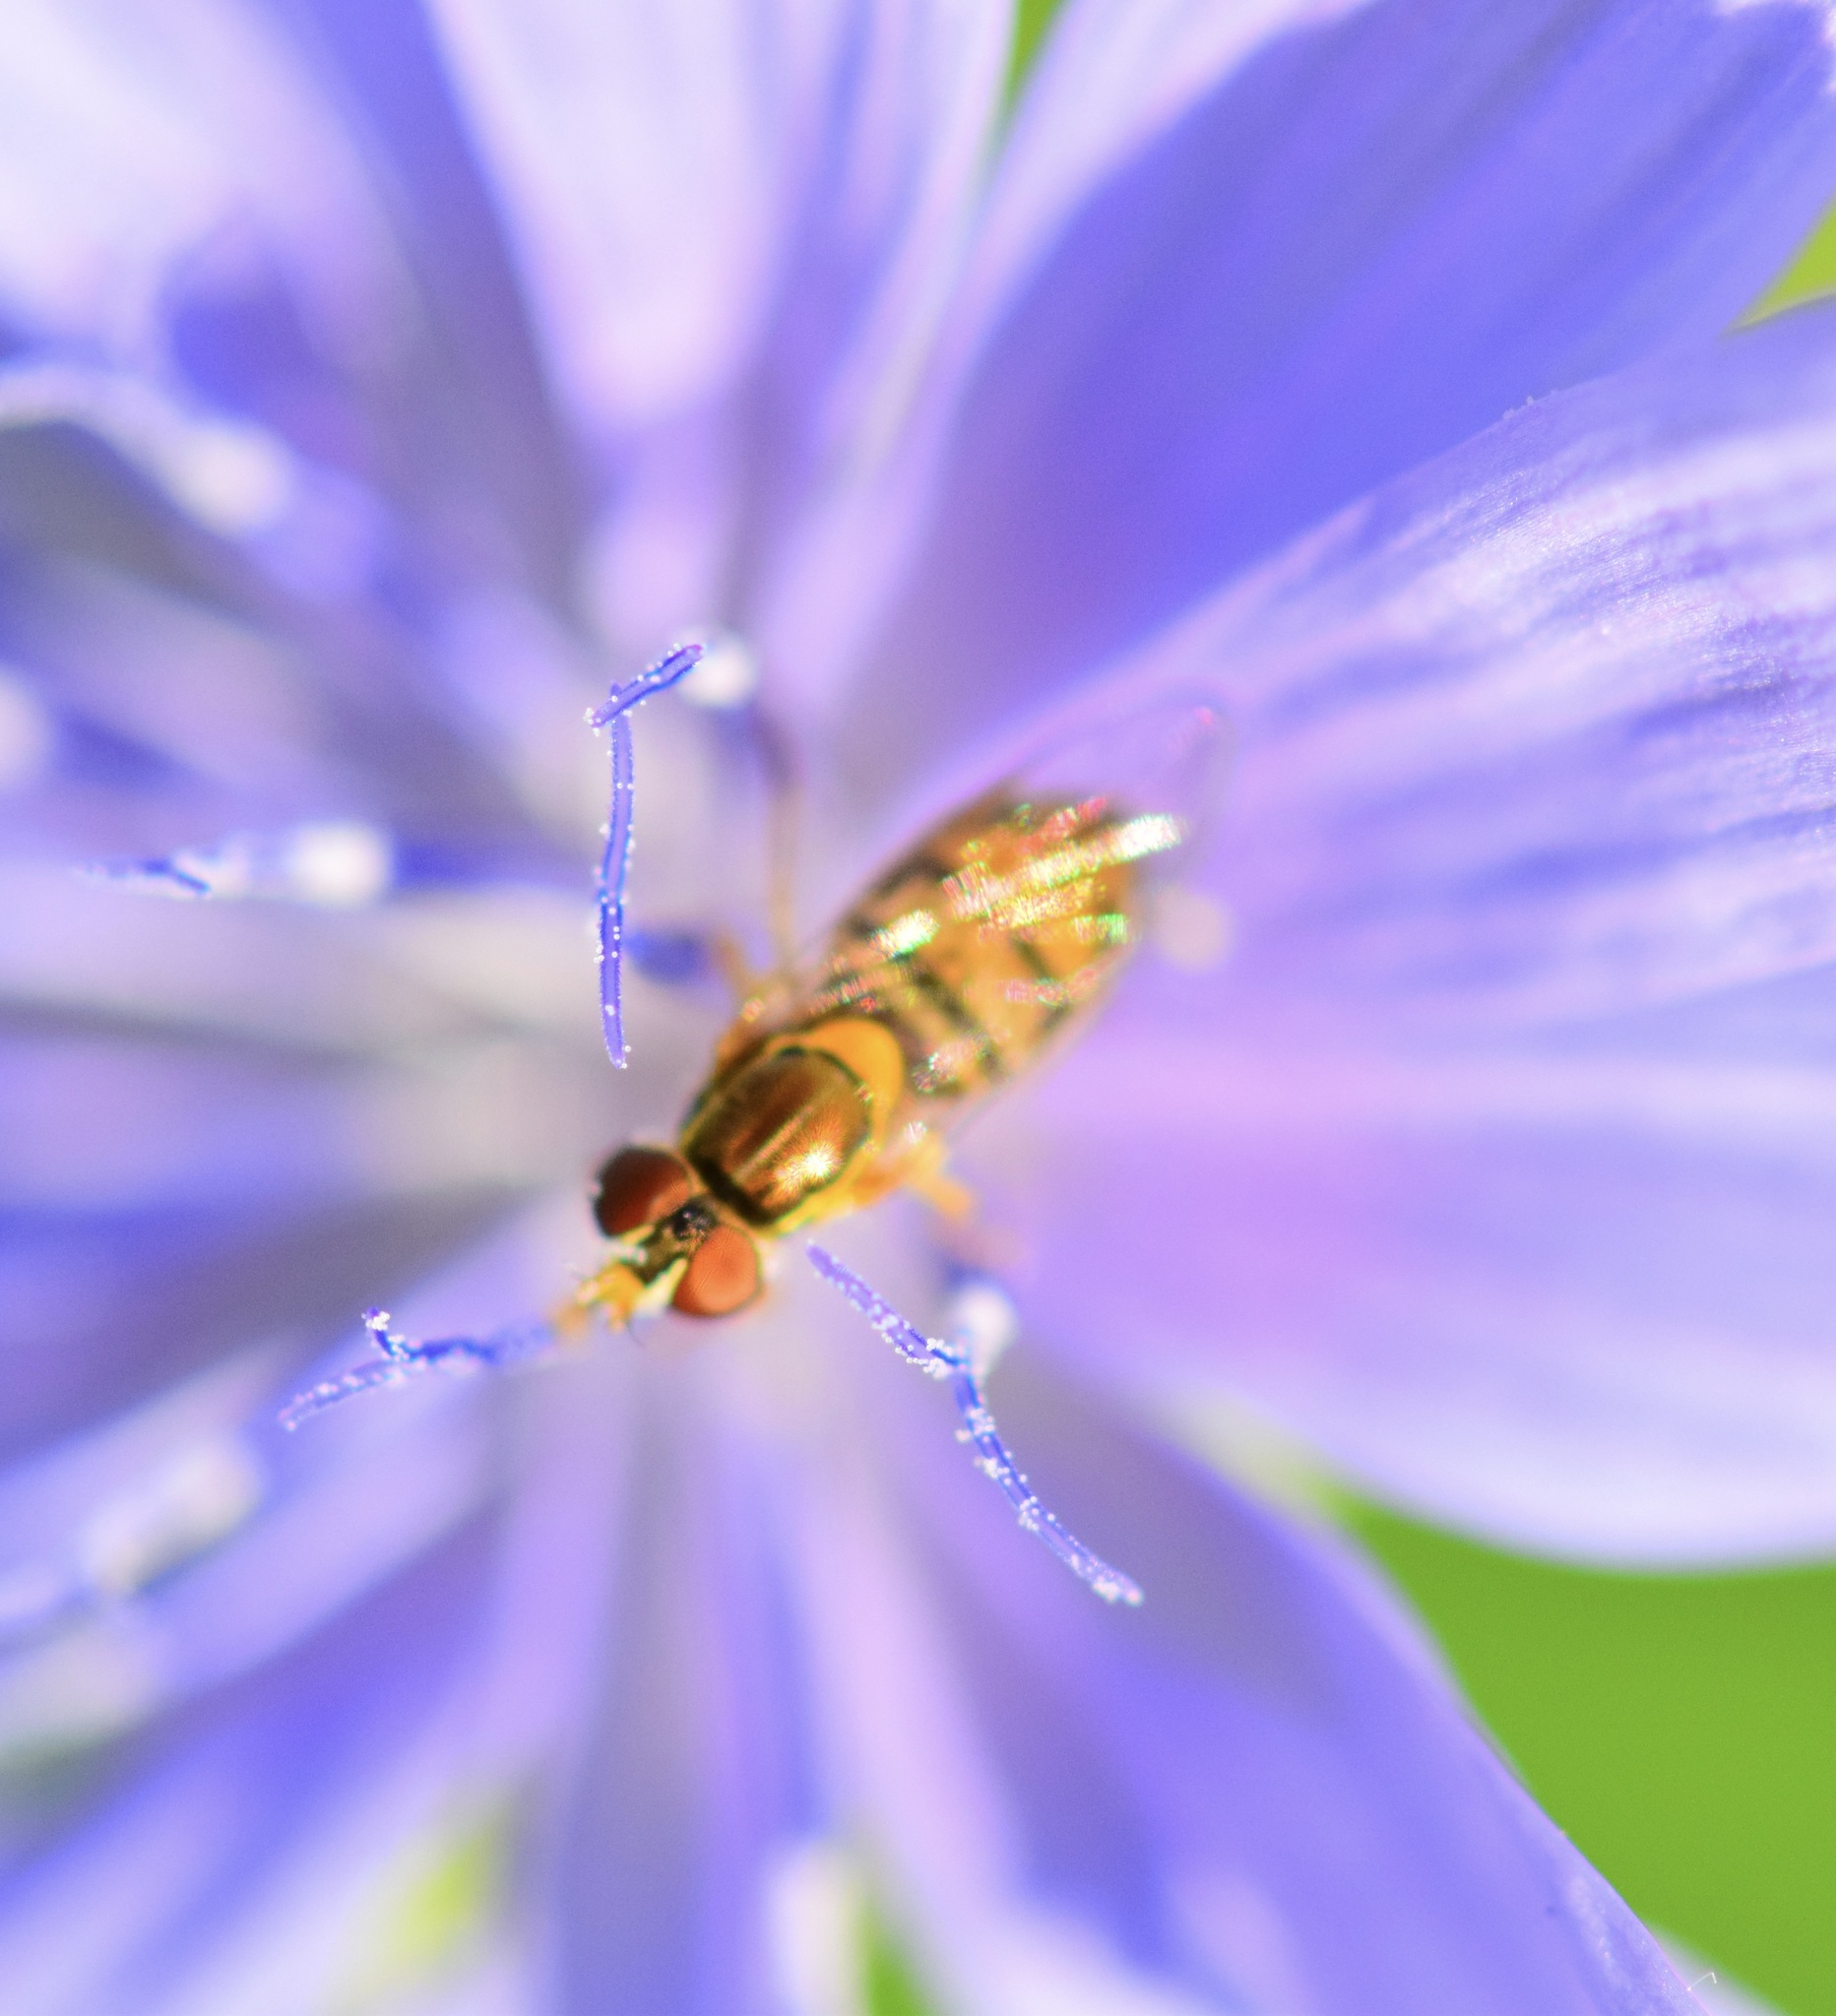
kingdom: Animalia
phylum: Arthropoda
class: Insecta
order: Diptera
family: Syrphidae
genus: Toxomerus
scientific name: Toxomerus marginatus
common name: Syrphid fly
